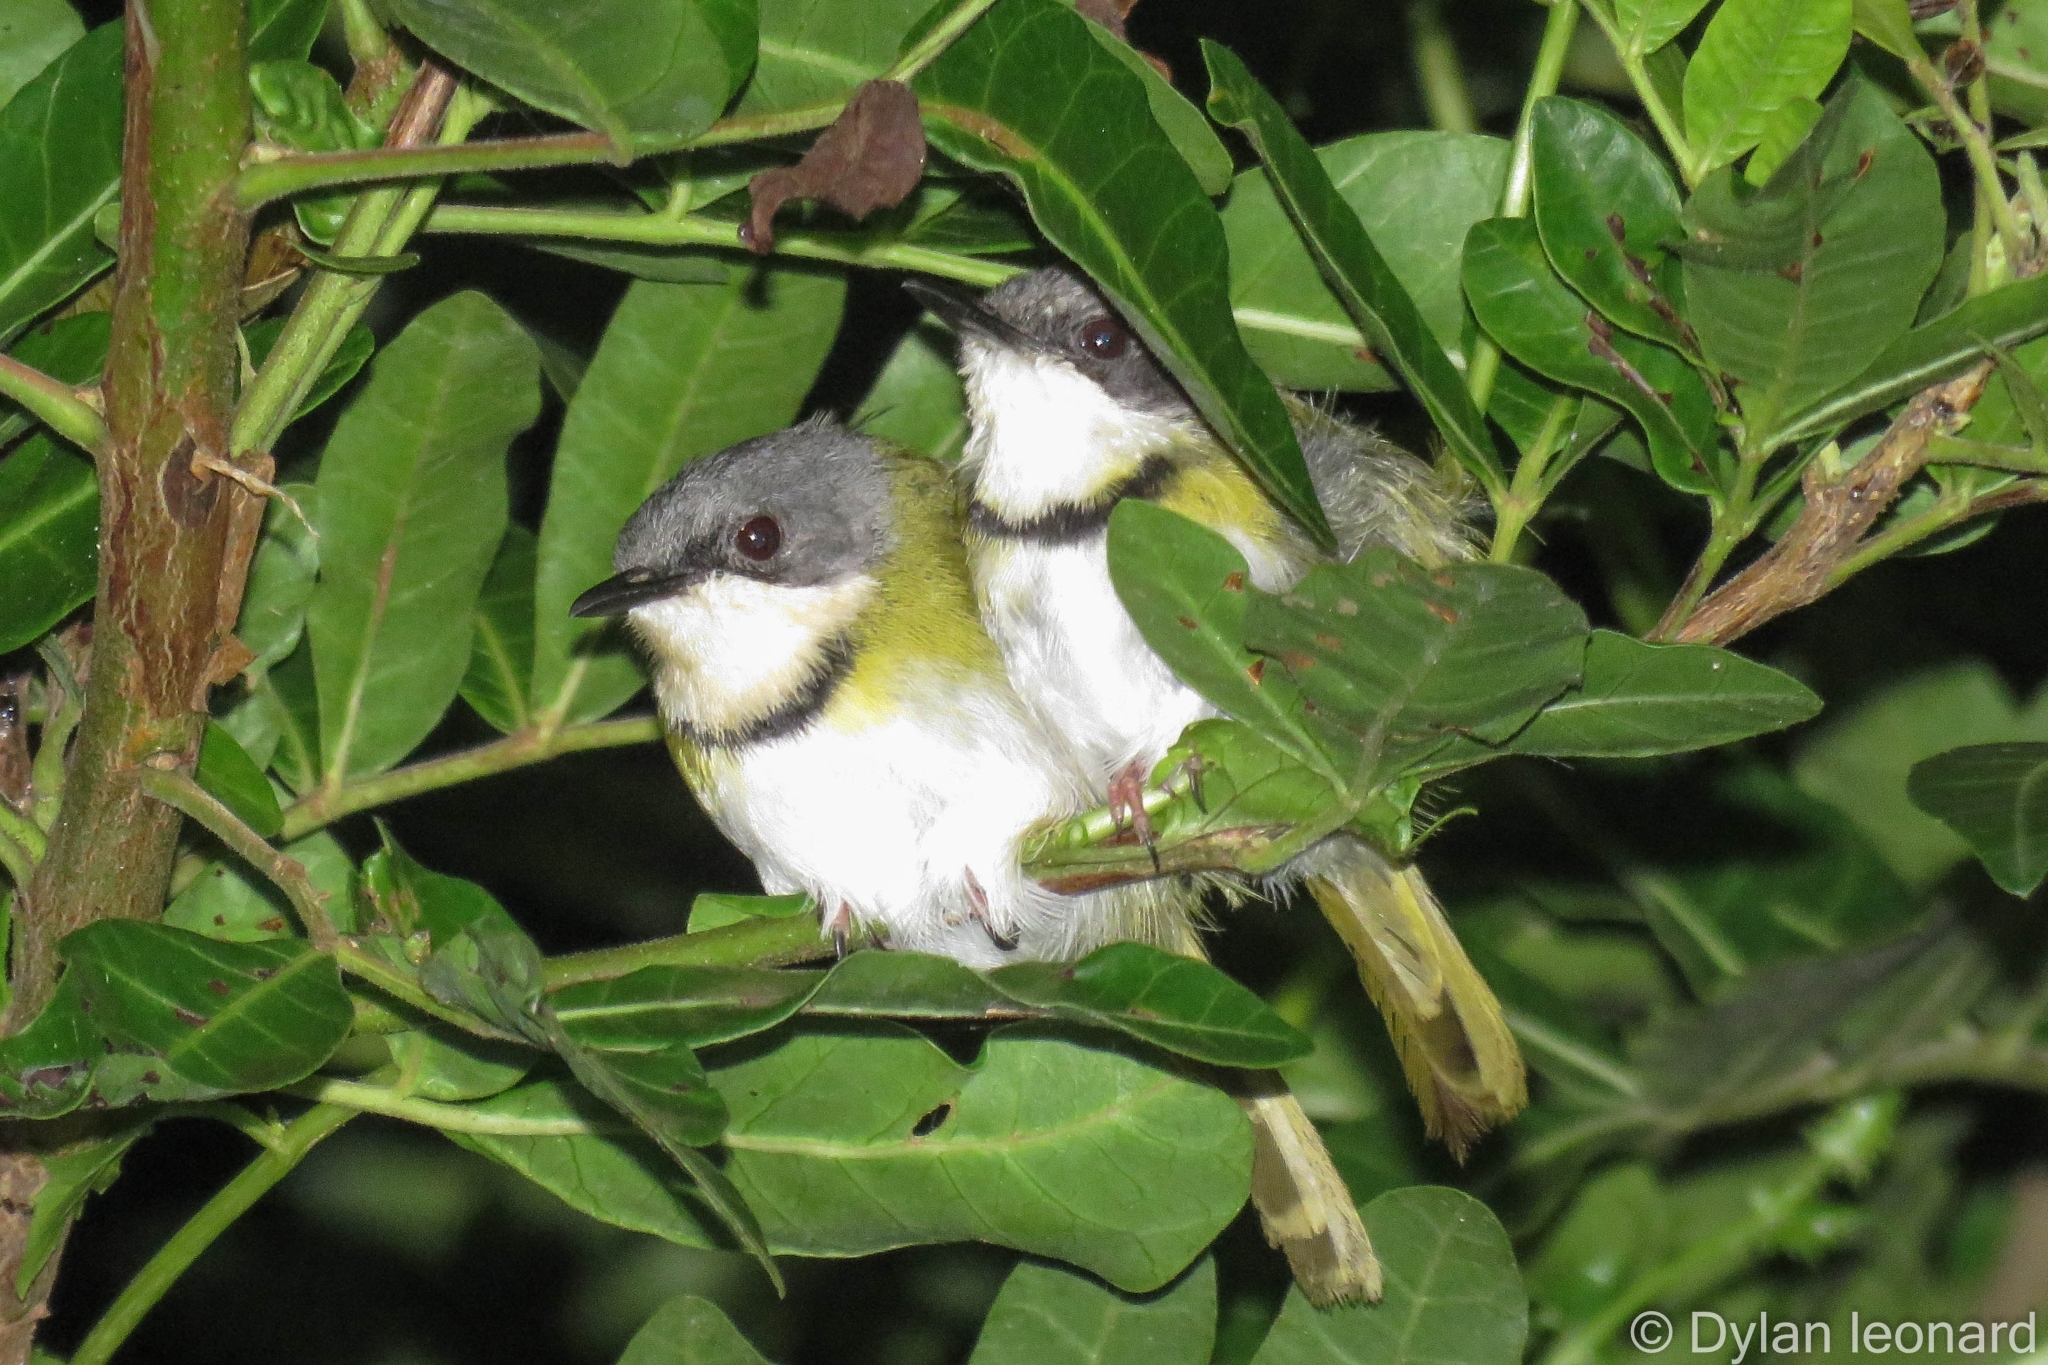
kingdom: Animalia
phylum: Chordata
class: Aves
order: Passeriformes
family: Cisticolidae
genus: Apalis
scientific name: Apalis ruddi
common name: Rudd's apalis
